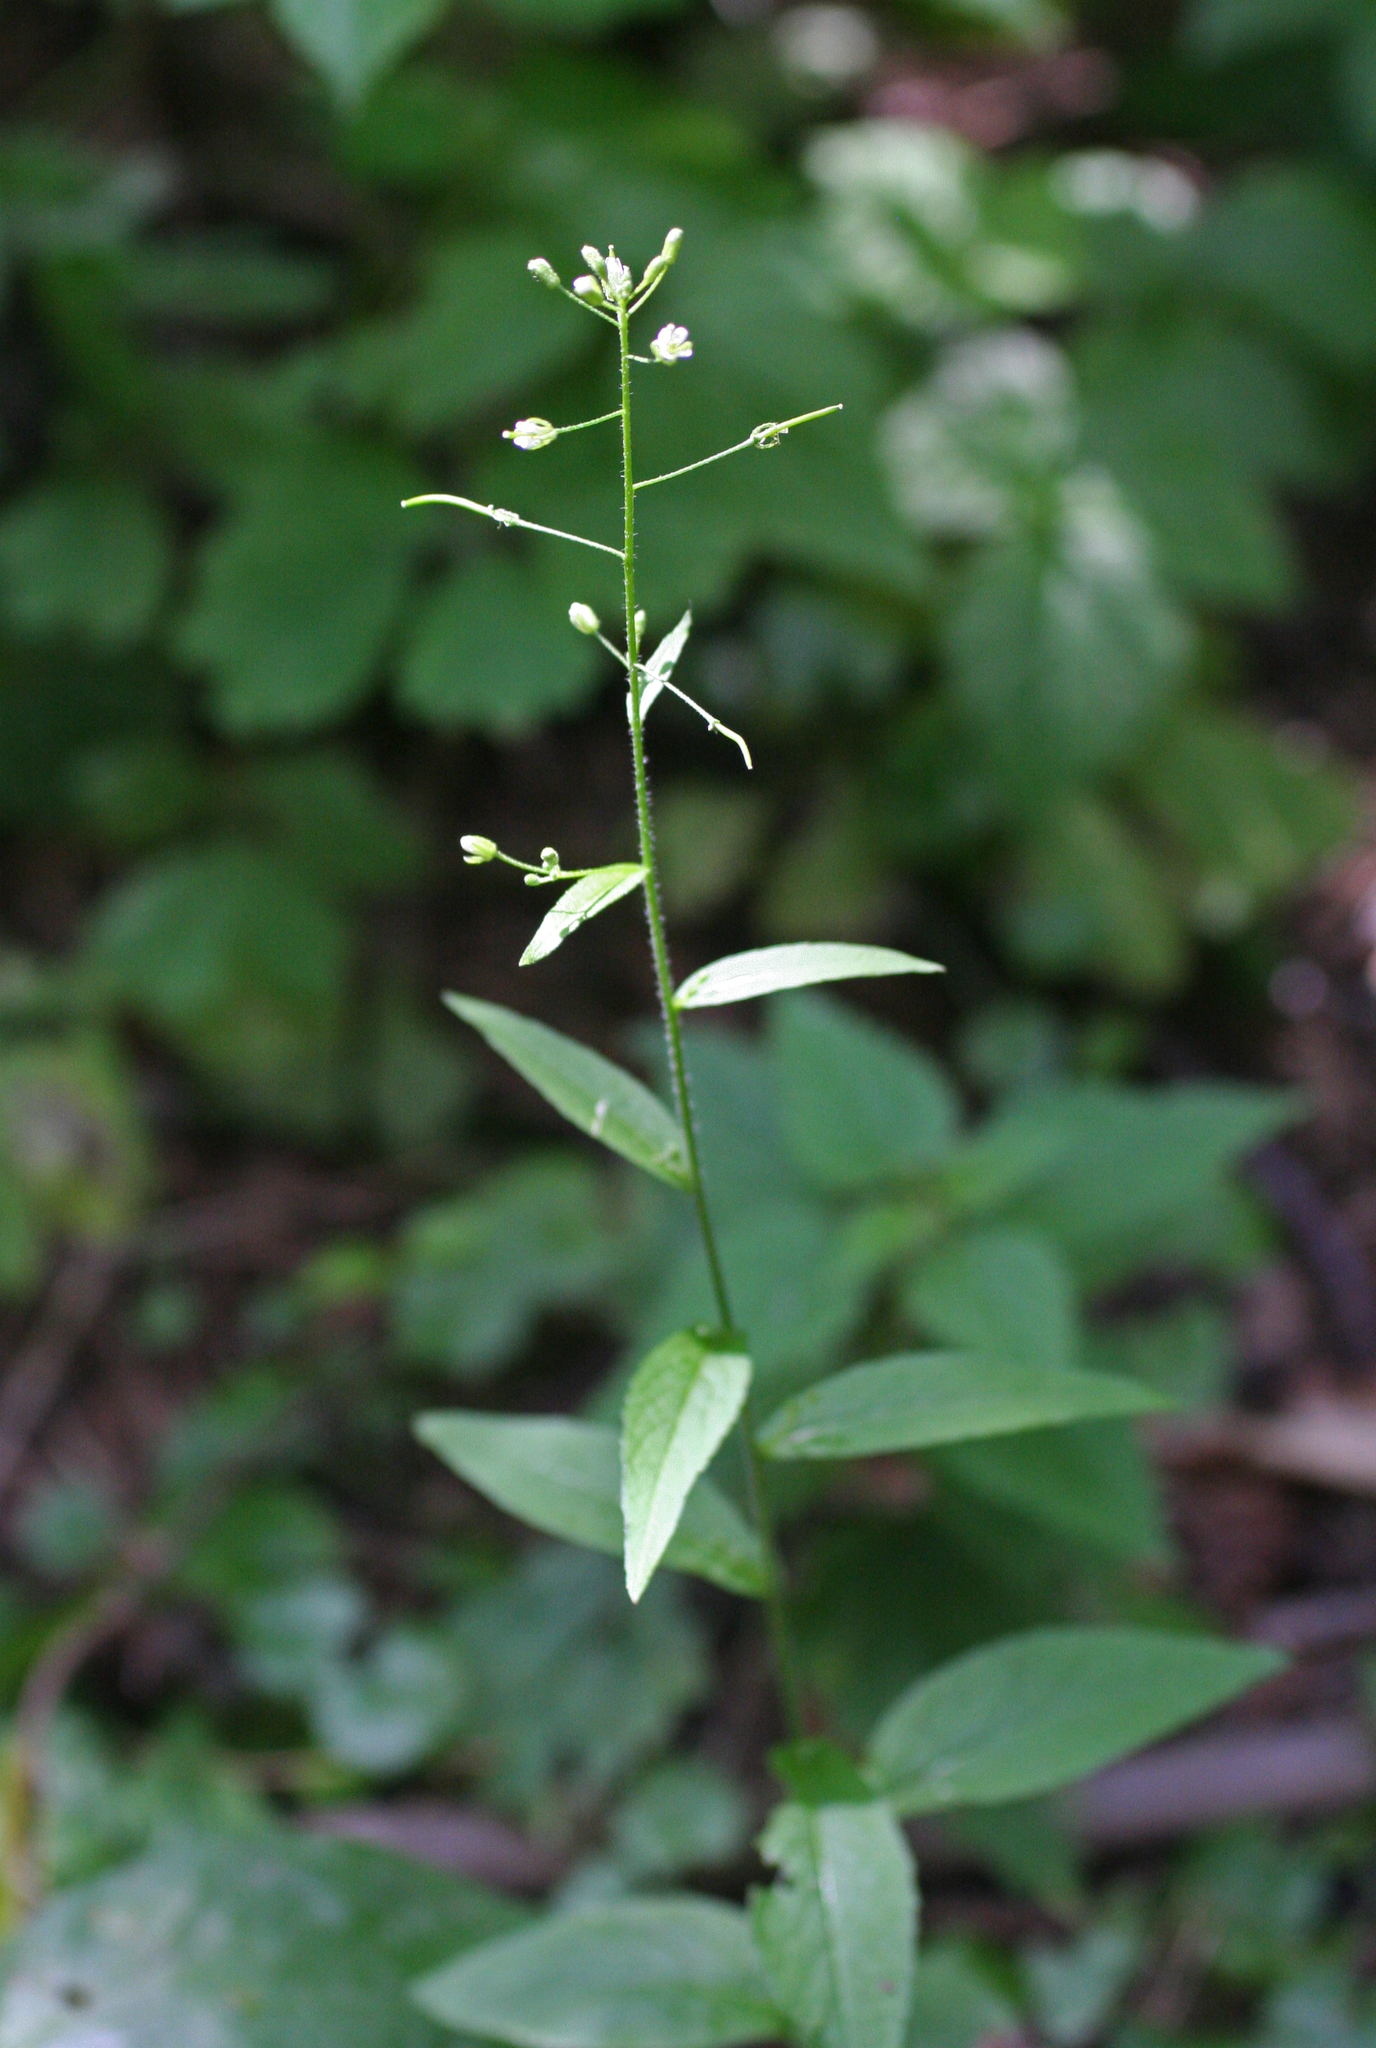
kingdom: Plantae
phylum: Tracheophyta
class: Magnoliopsida
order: Brassicales
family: Brassicaceae
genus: Catolobus
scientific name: Catolobus pendulus
